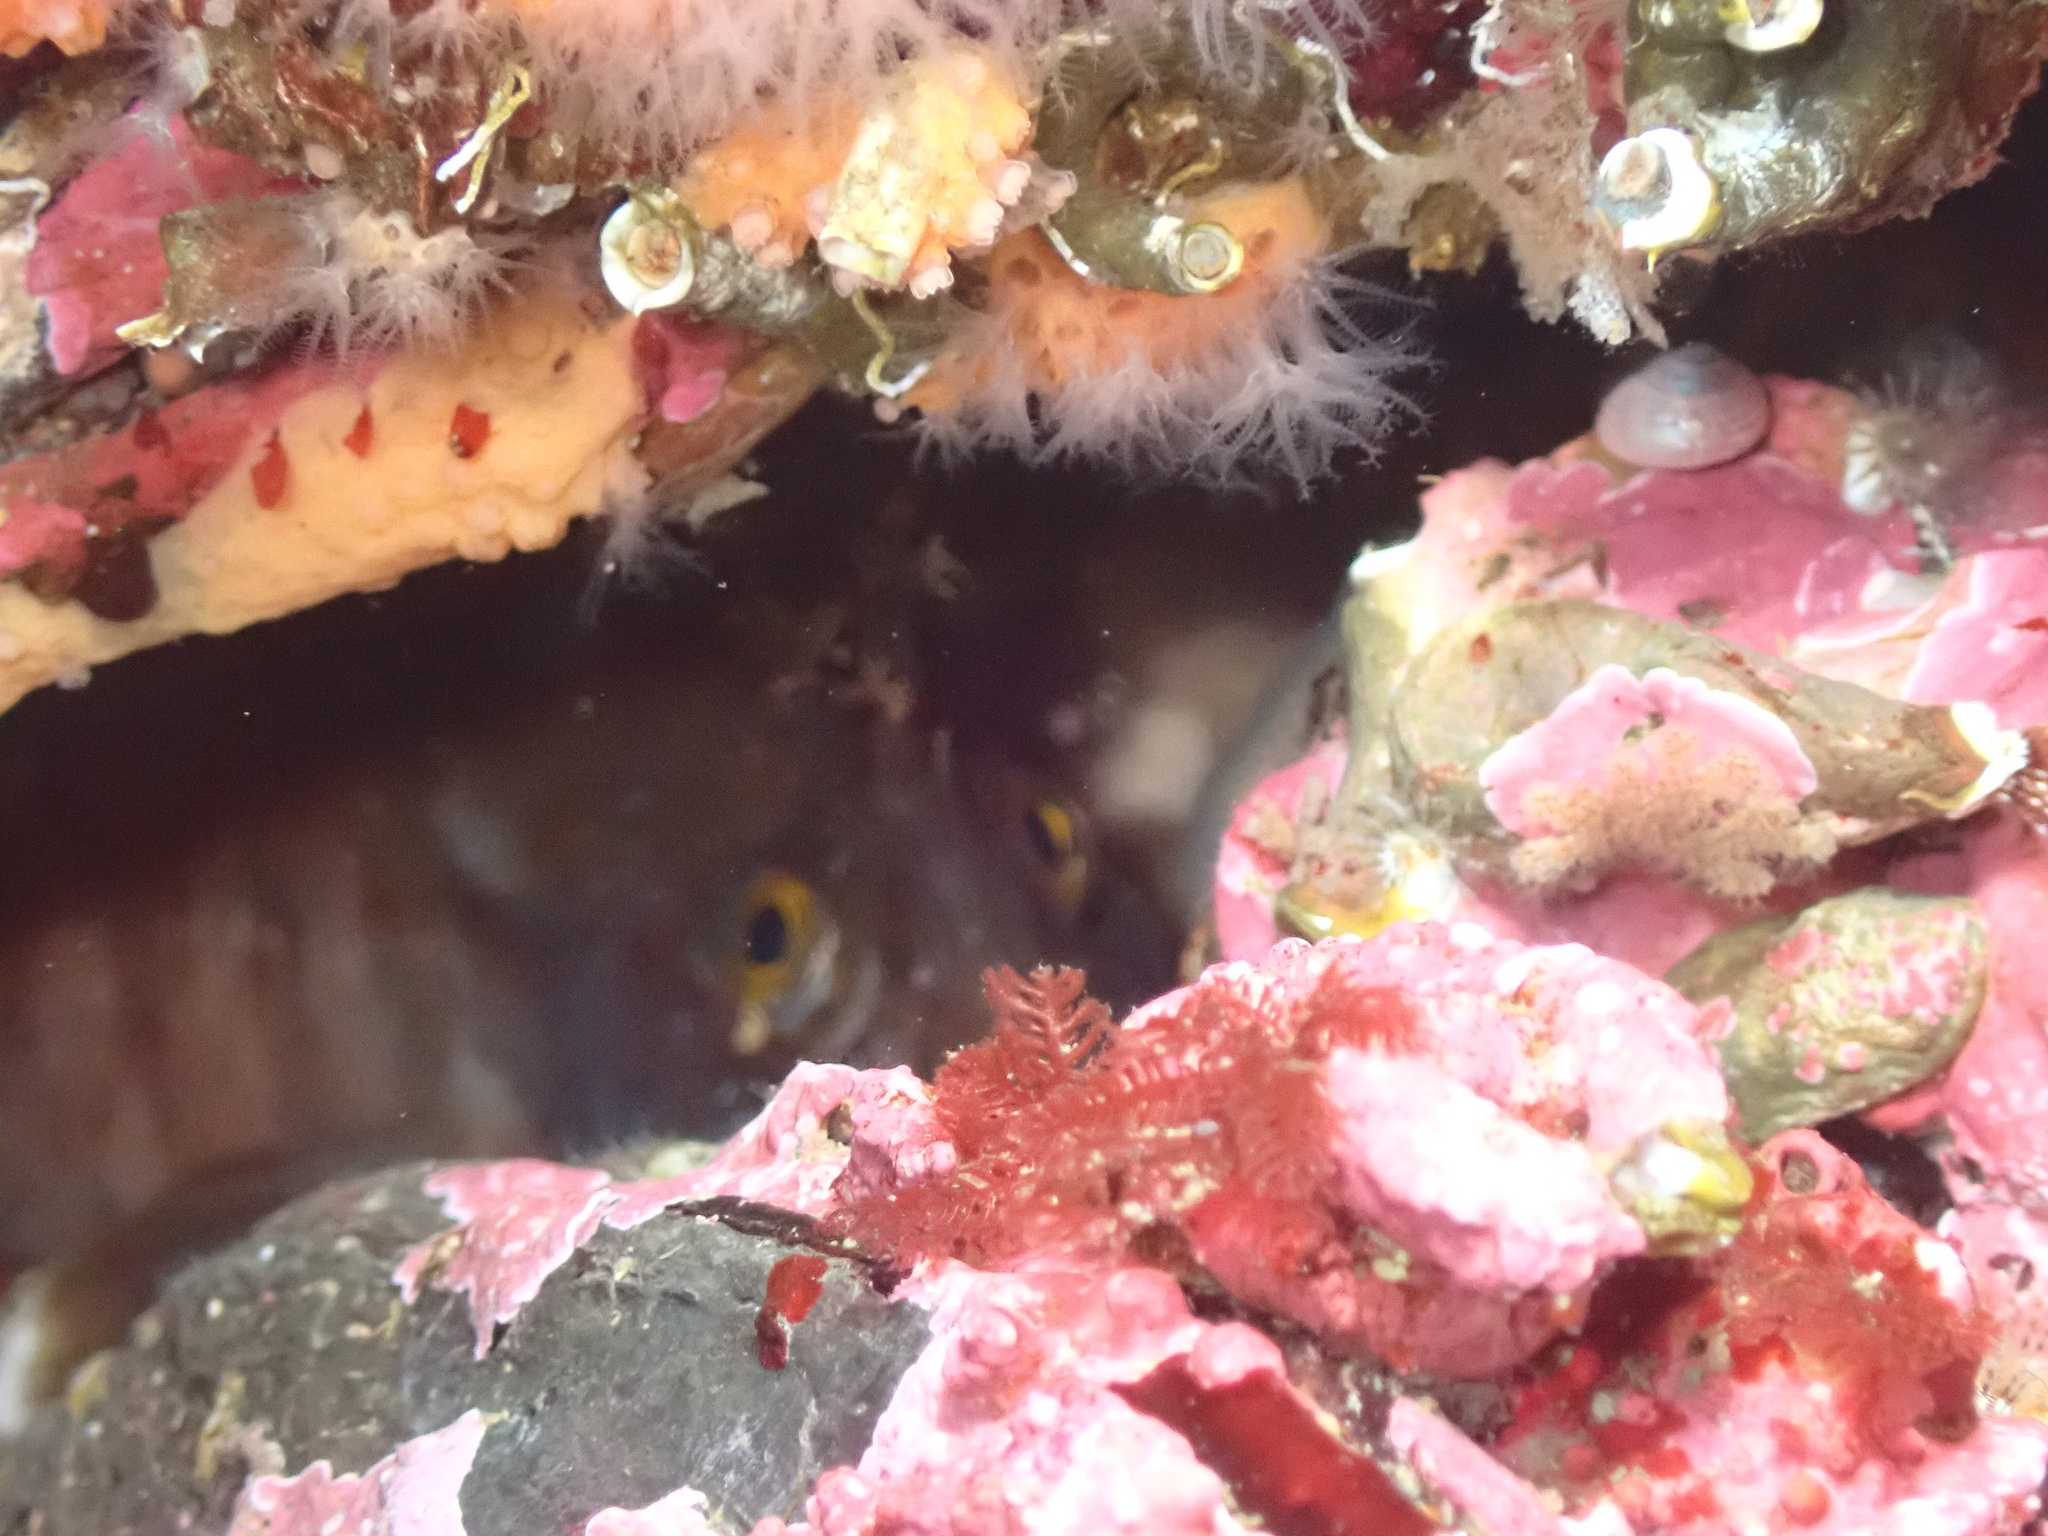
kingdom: Animalia
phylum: Chordata
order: Perciformes
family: Stichaeidae
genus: Chirolophis
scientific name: Chirolophis ascanii
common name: Yarrell's blenny
